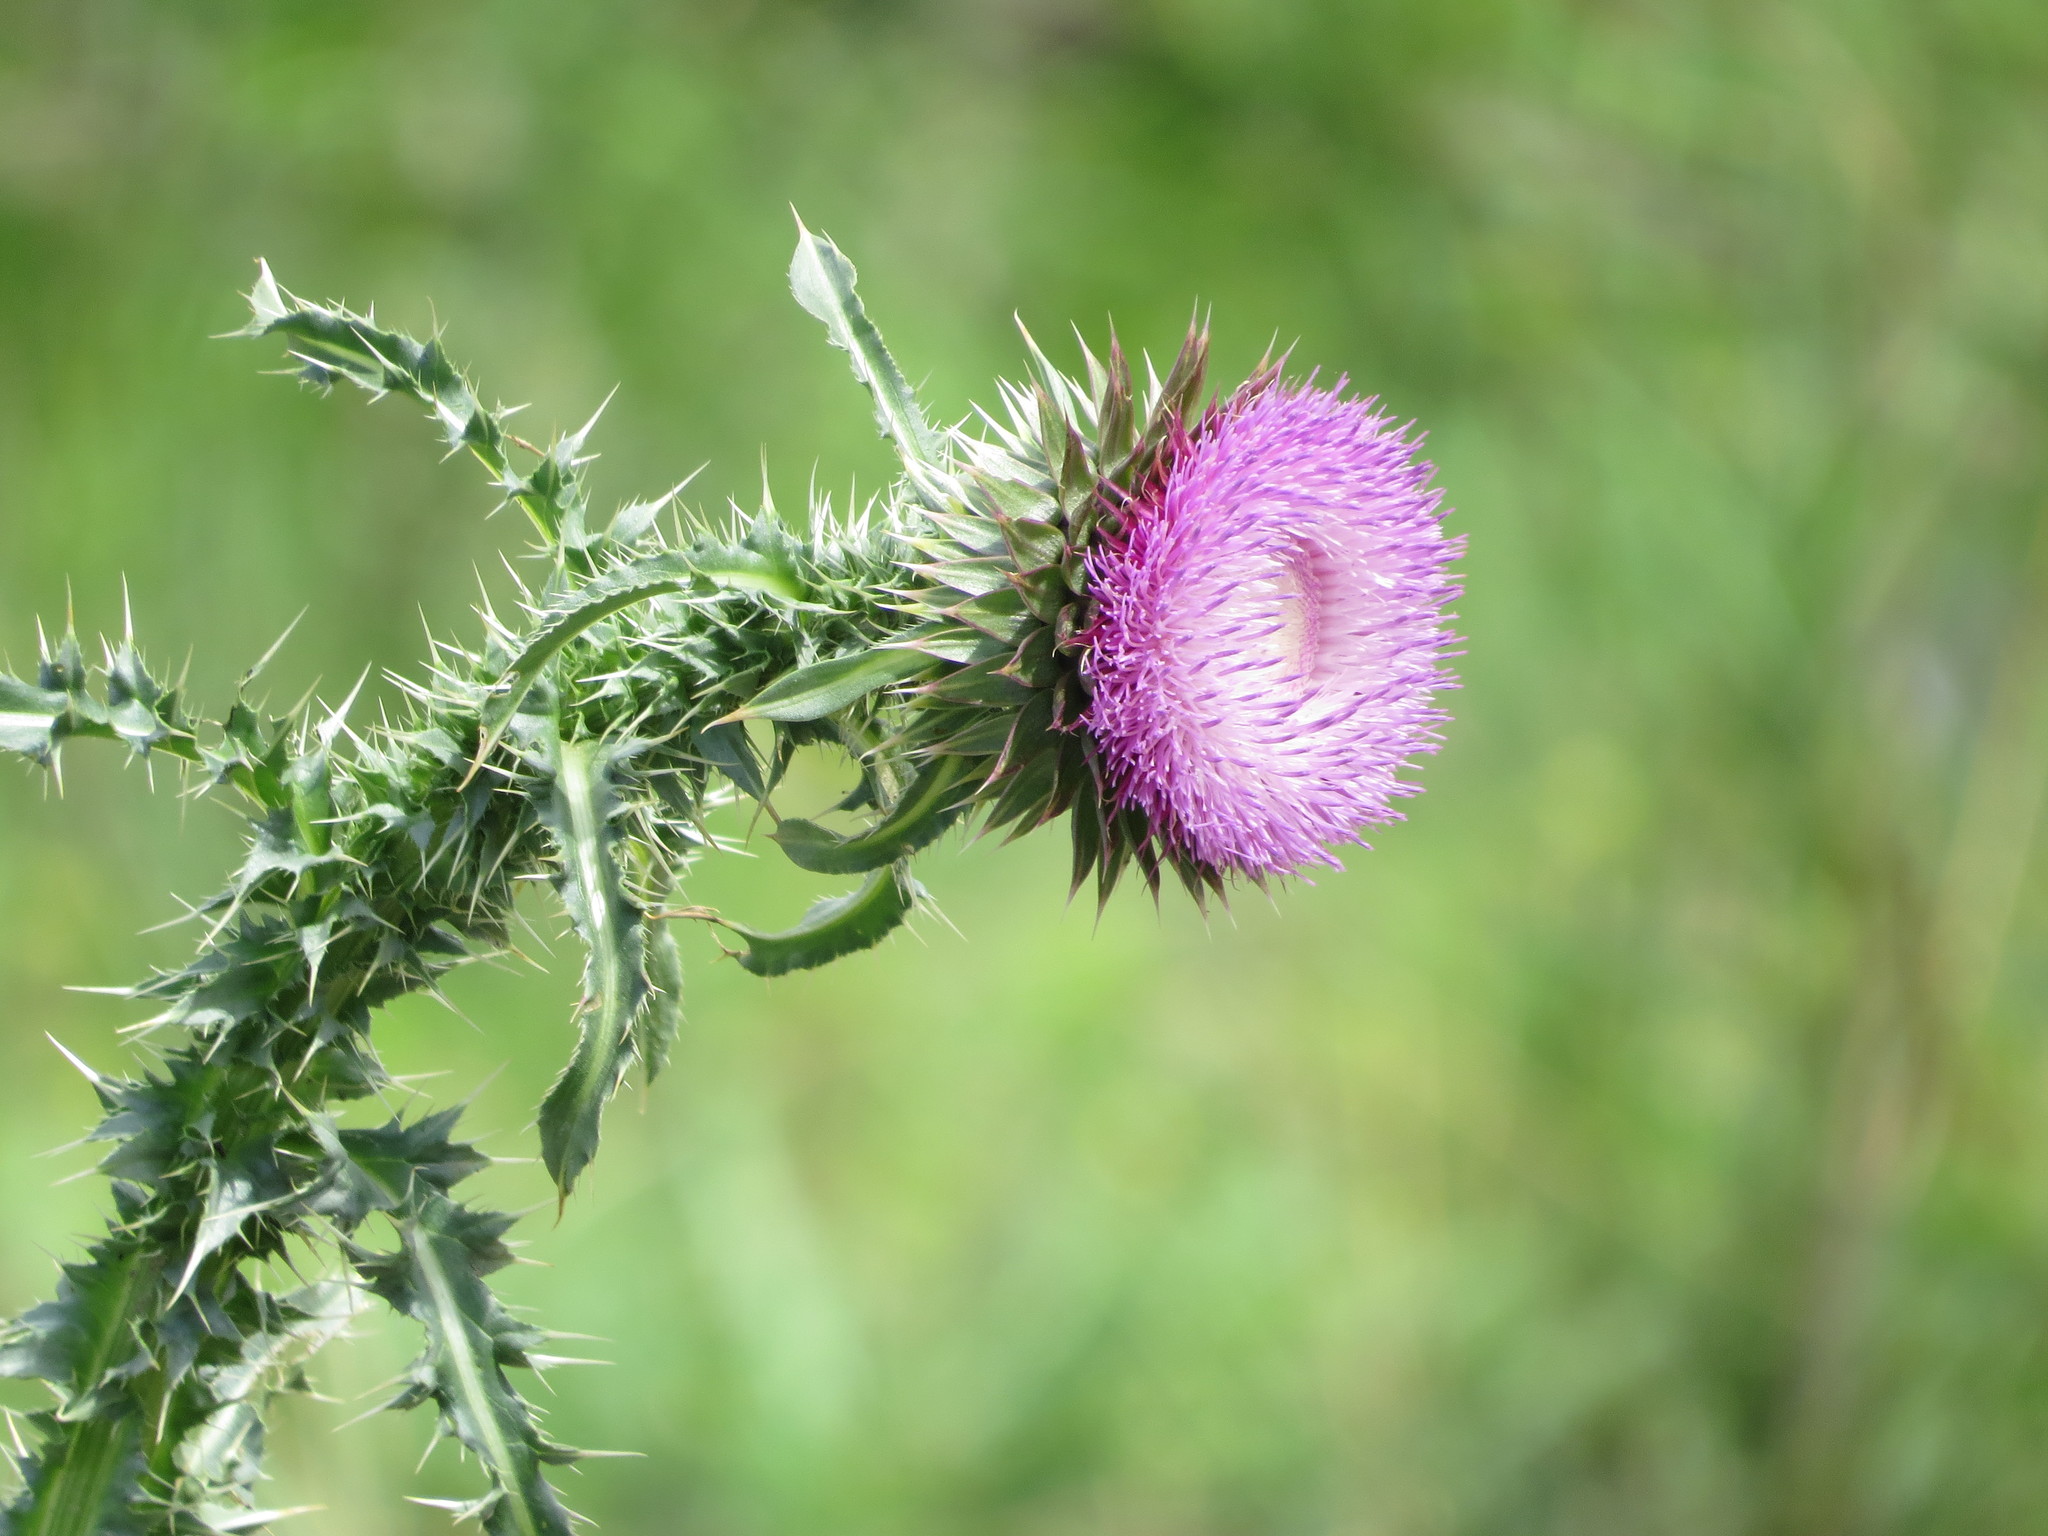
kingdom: Plantae
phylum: Tracheophyta
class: Magnoliopsida
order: Asterales
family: Asteraceae
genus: Carduus
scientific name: Carduus nutans
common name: Musk thistle
